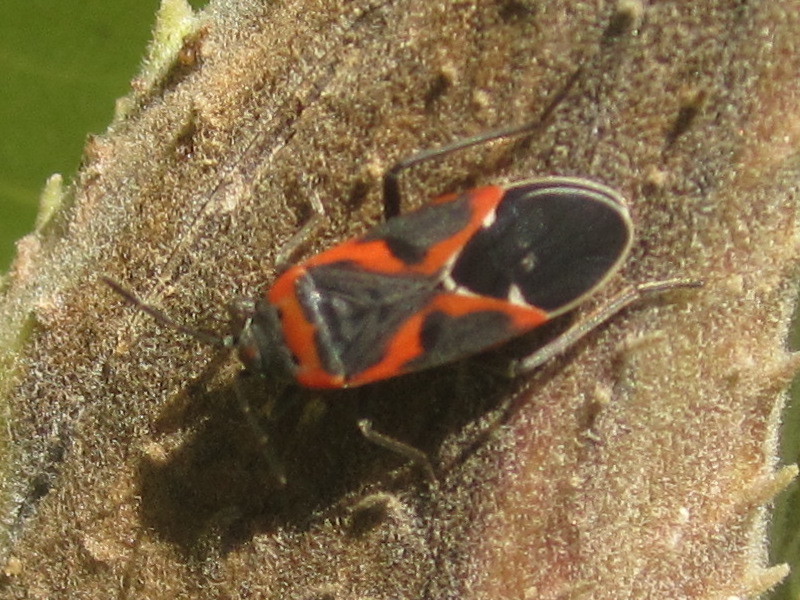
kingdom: Animalia
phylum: Arthropoda
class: Insecta
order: Hemiptera
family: Lygaeidae
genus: Lygaeus
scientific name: Lygaeus kalmii
